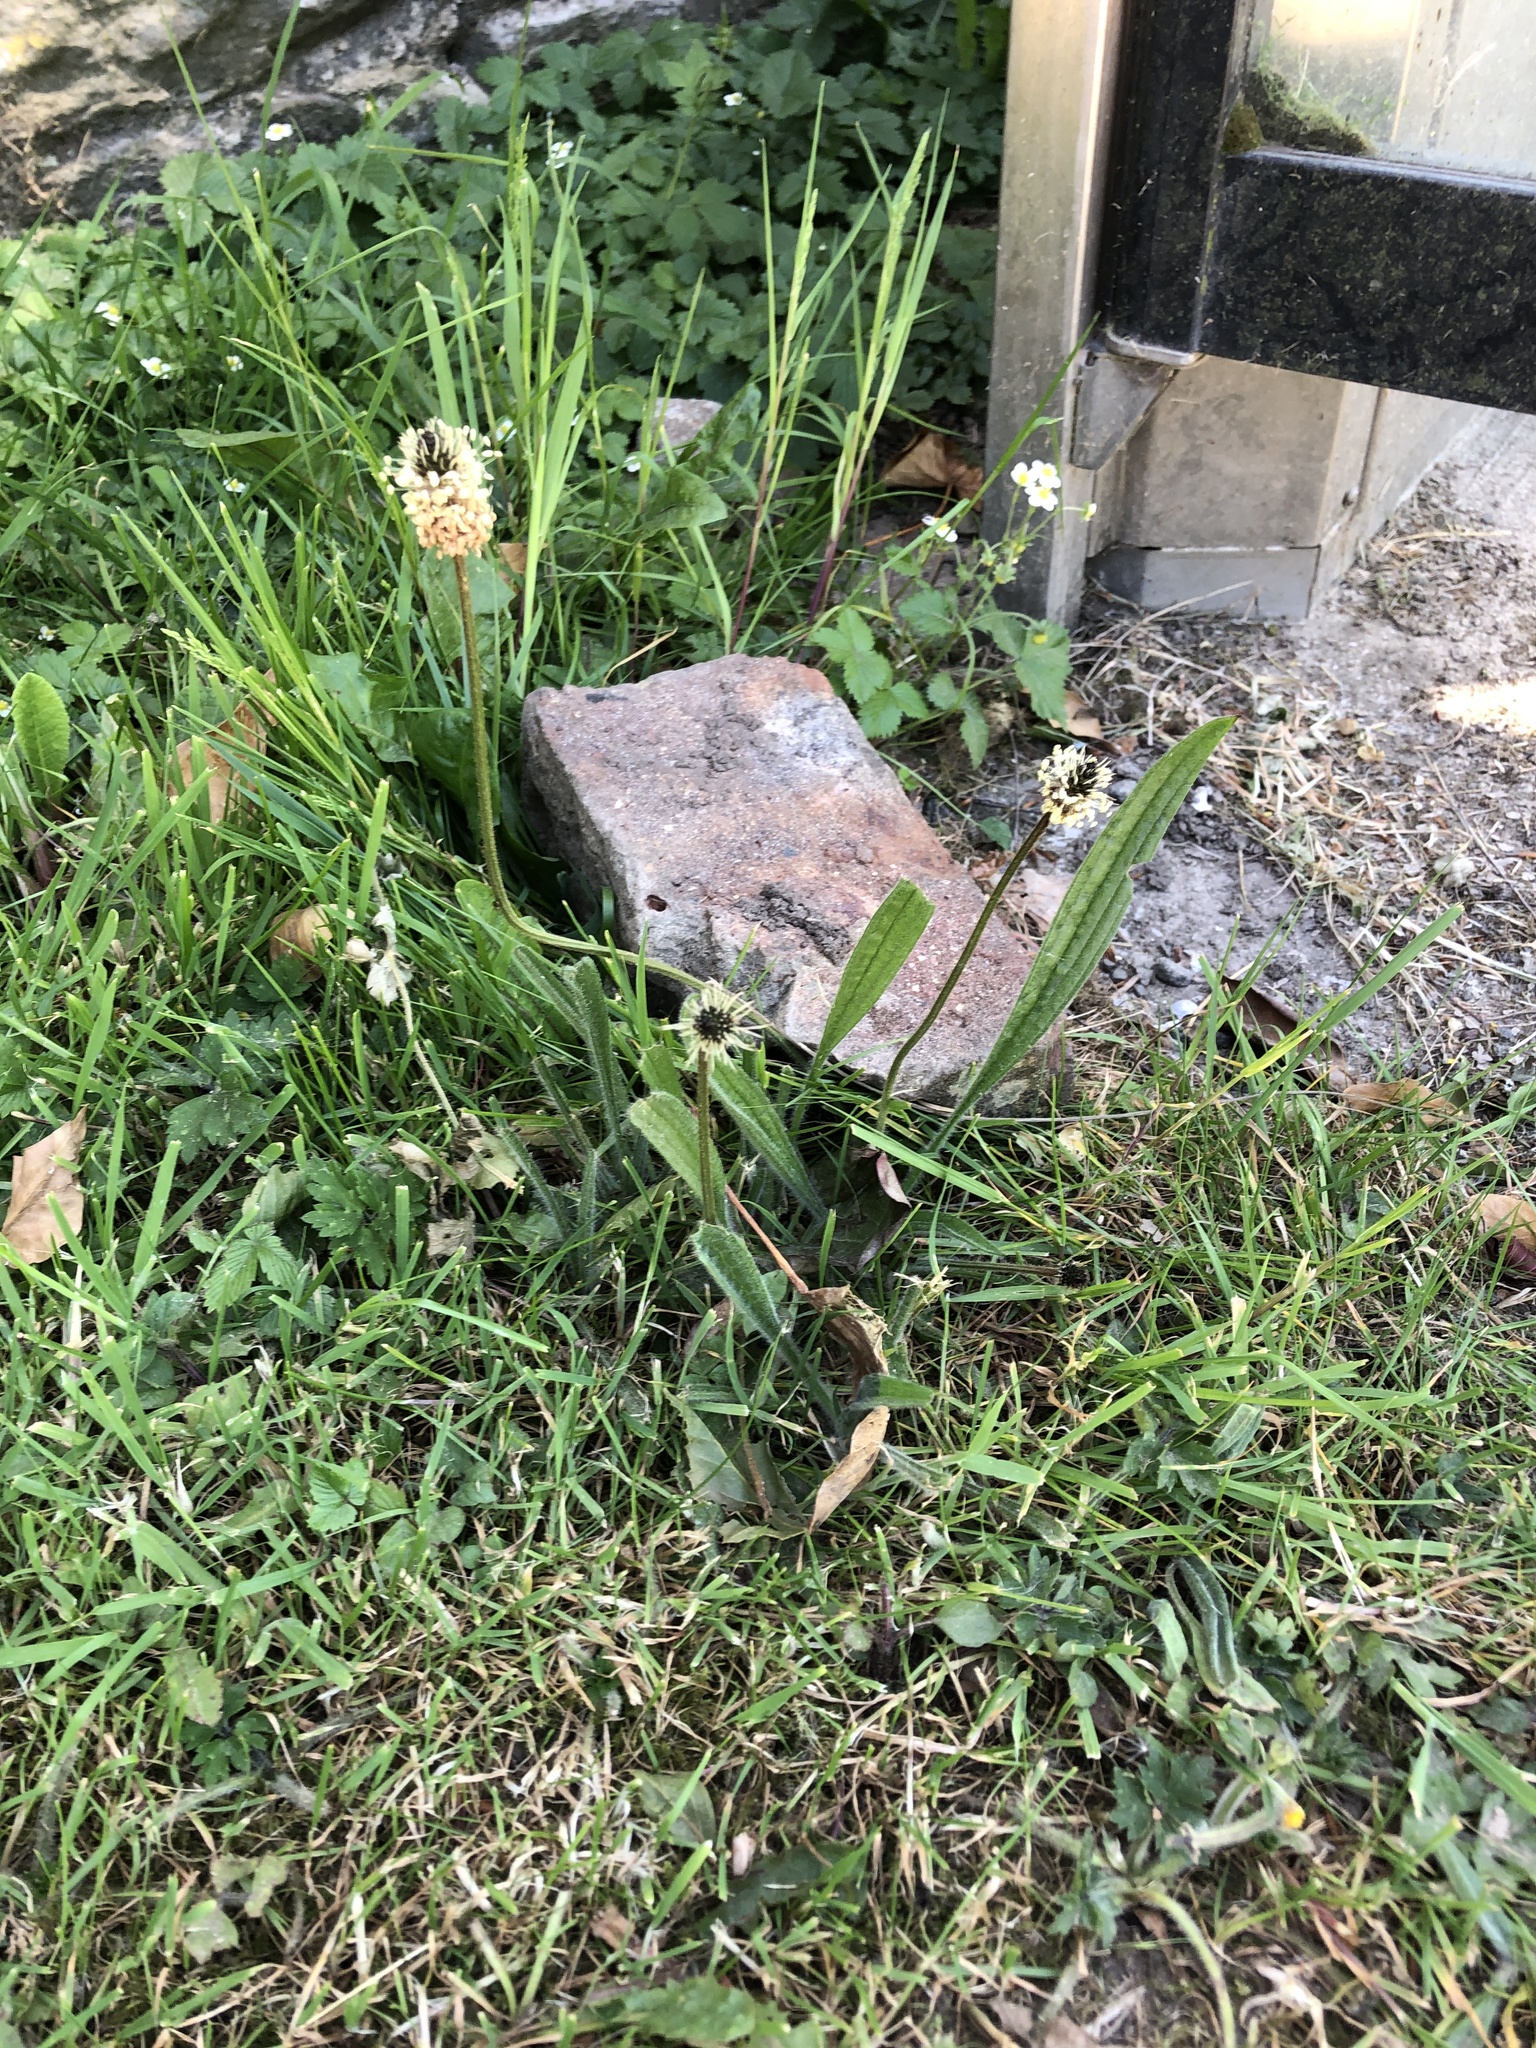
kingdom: Plantae
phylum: Tracheophyta
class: Magnoliopsida
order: Lamiales
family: Plantaginaceae
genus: Plantago
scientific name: Plantago lanceolata
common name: Ribwort plantain
